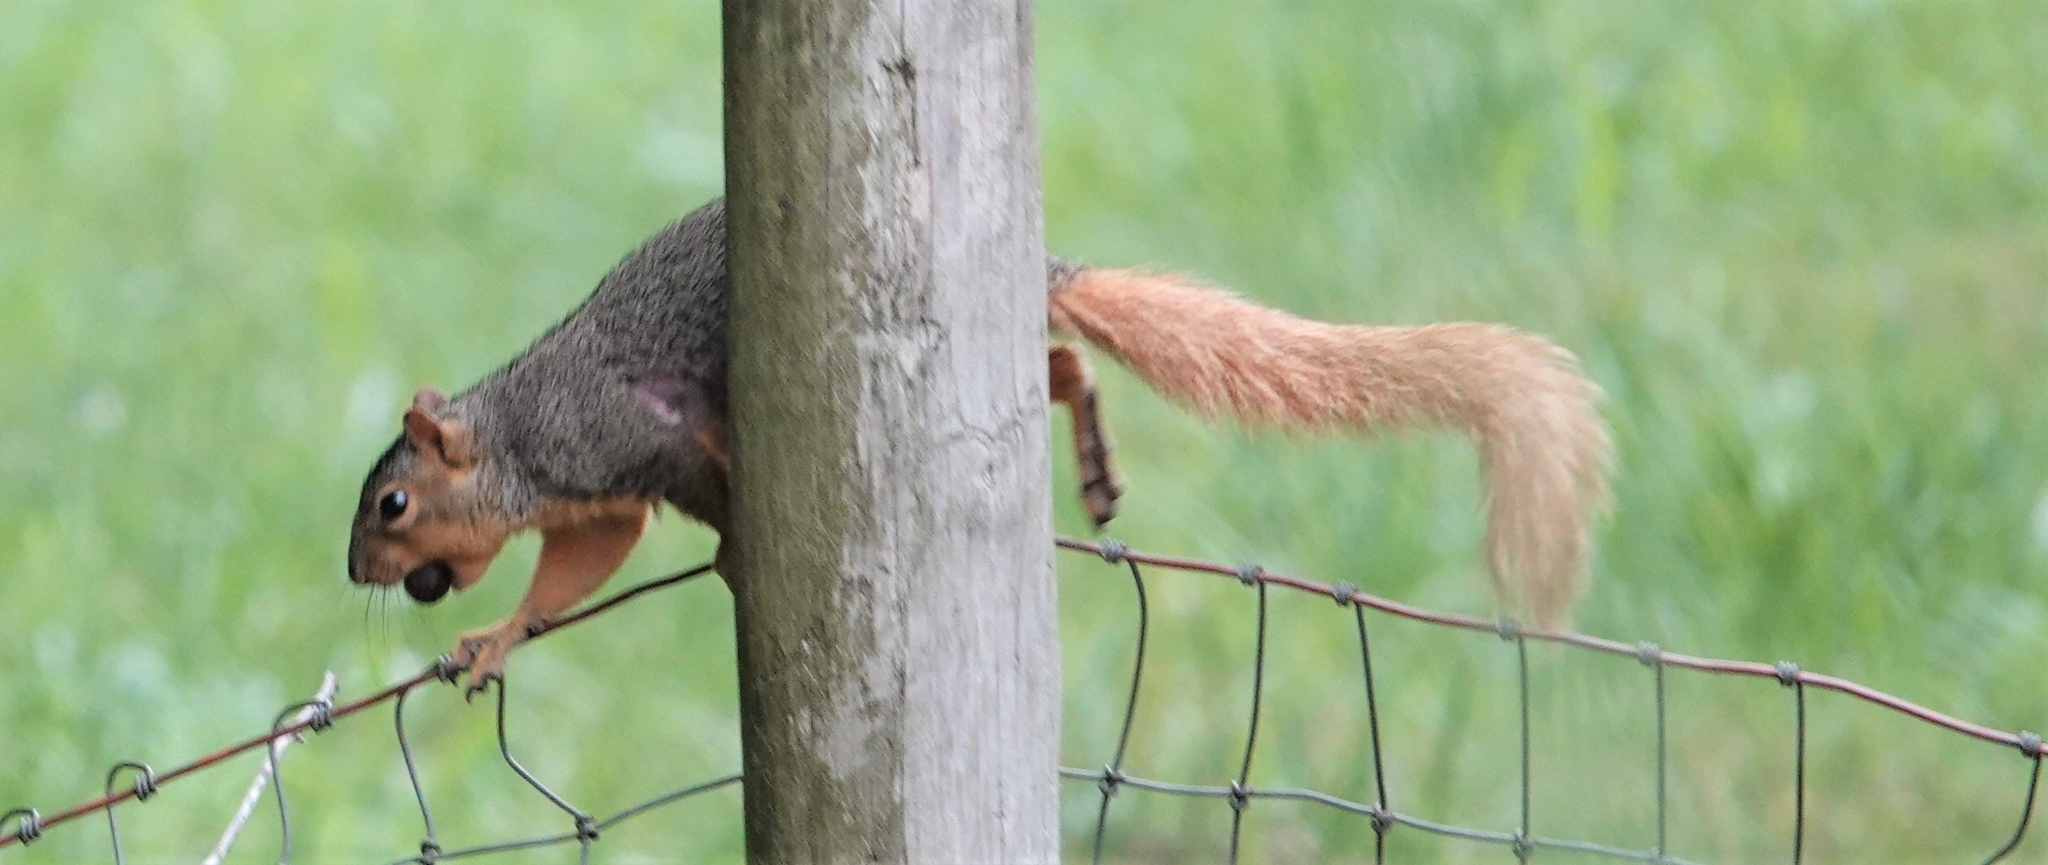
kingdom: Animalia
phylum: Chordata
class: Mammalia
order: Rodentia
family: Sciuridae
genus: Sciurus
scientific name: Sciurus niger
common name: Fox squirrel
